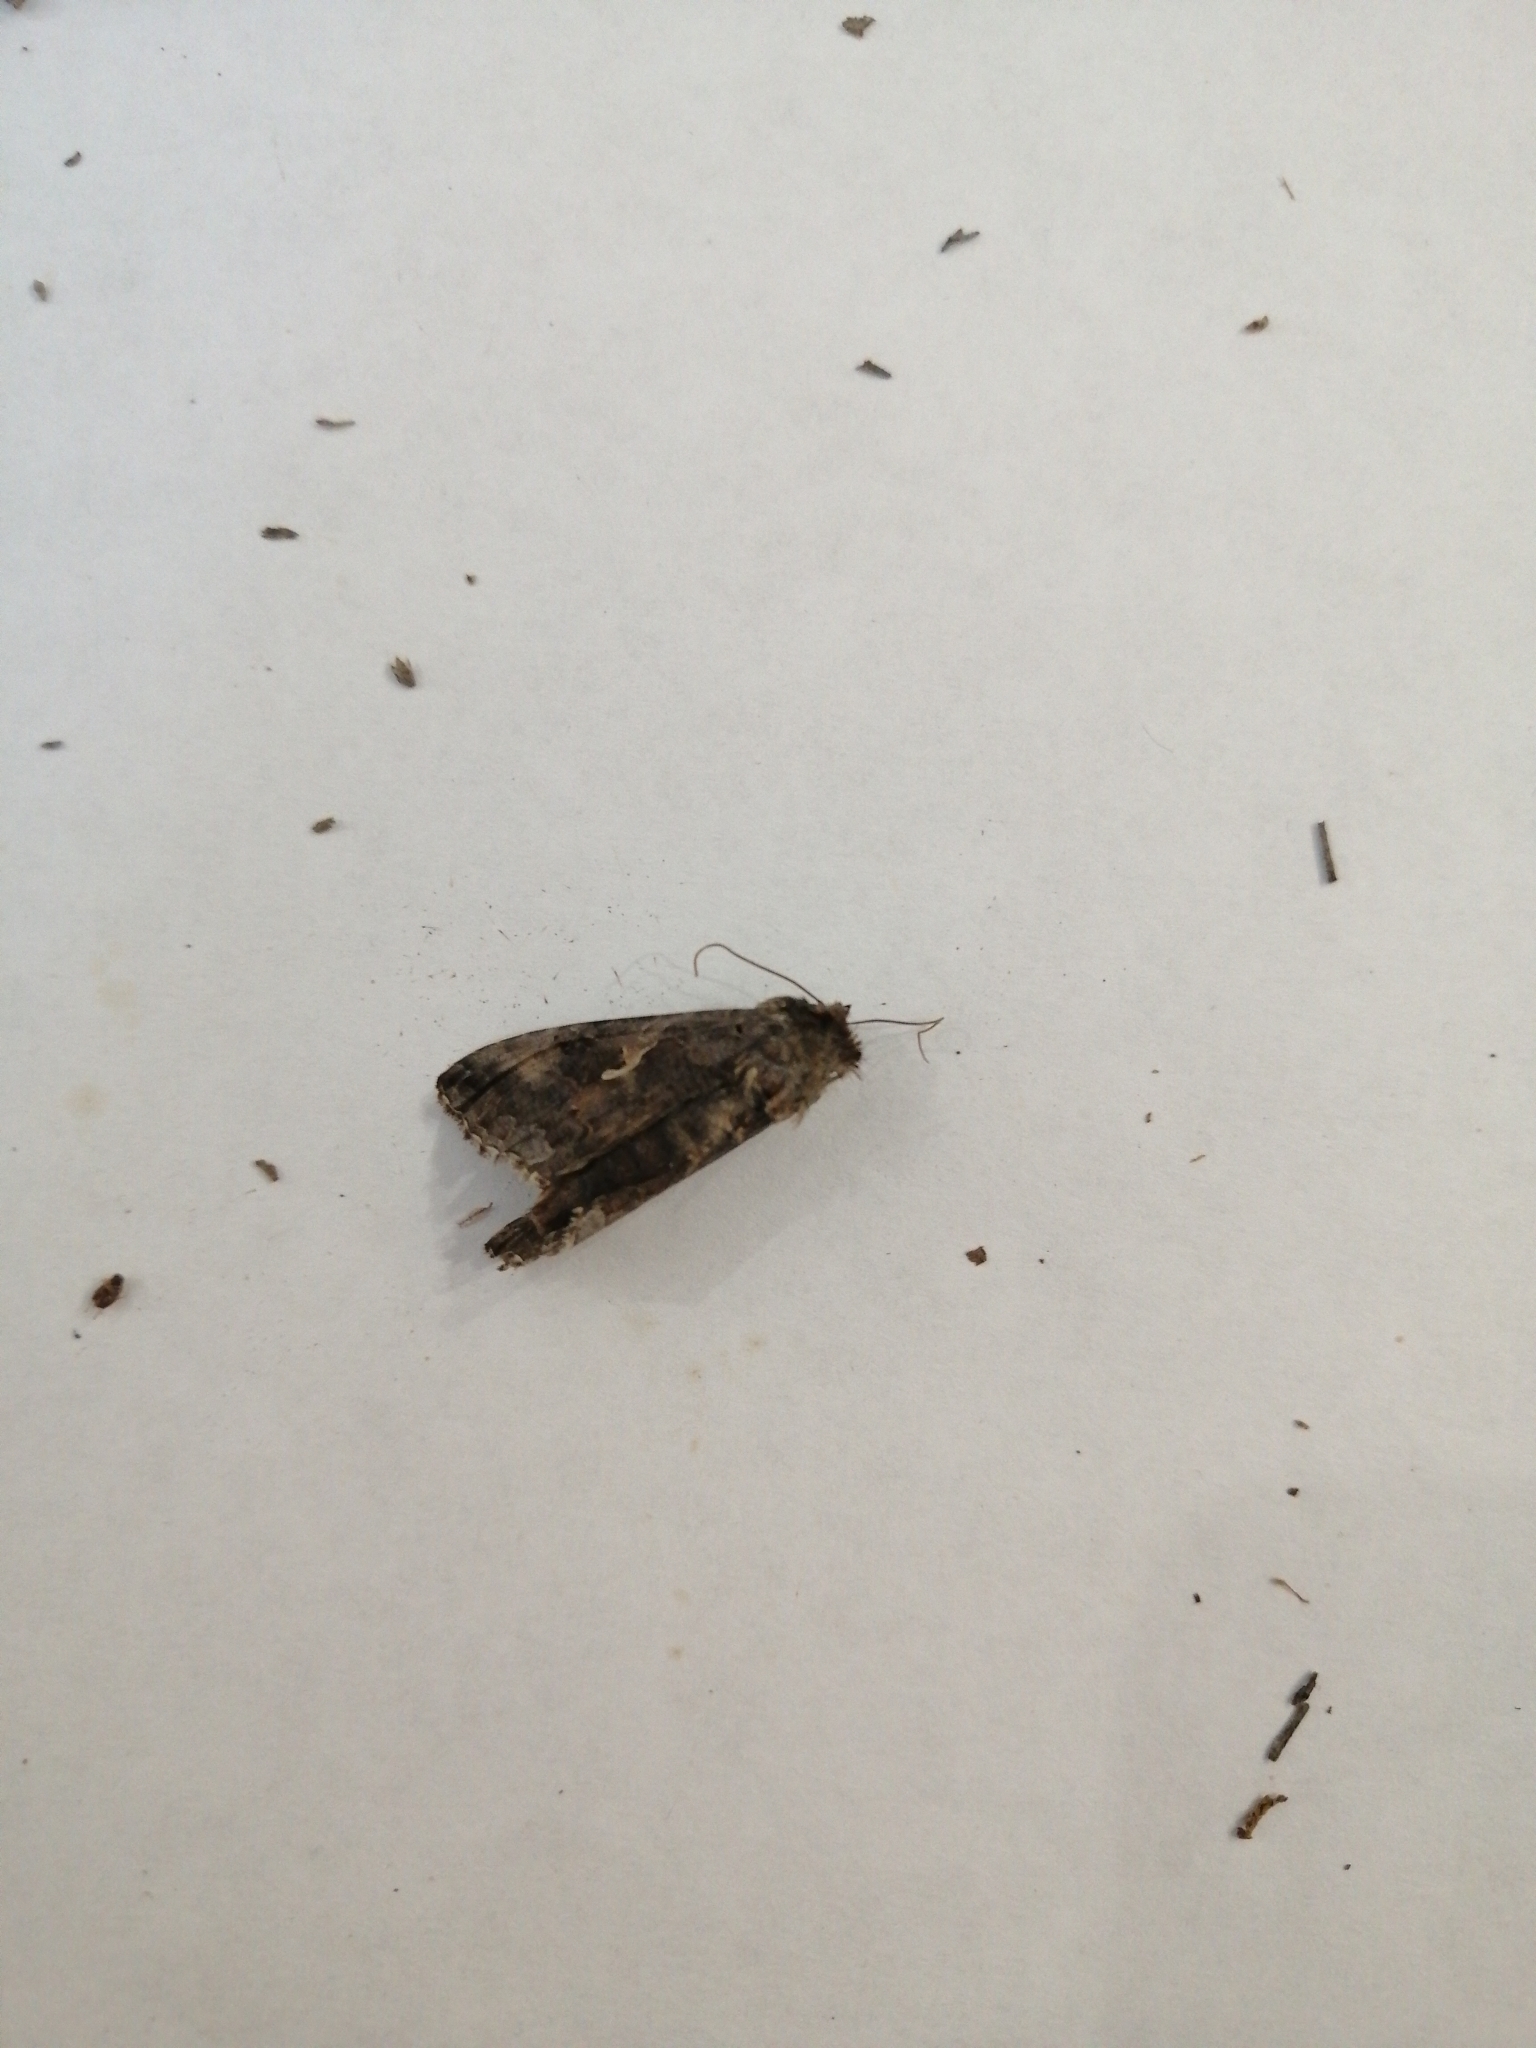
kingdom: Animalia
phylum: Arthropoda
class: Insecta
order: Lepidoptera
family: Noctuidae
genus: Autographa
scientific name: Autographa gamma
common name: Silver y
